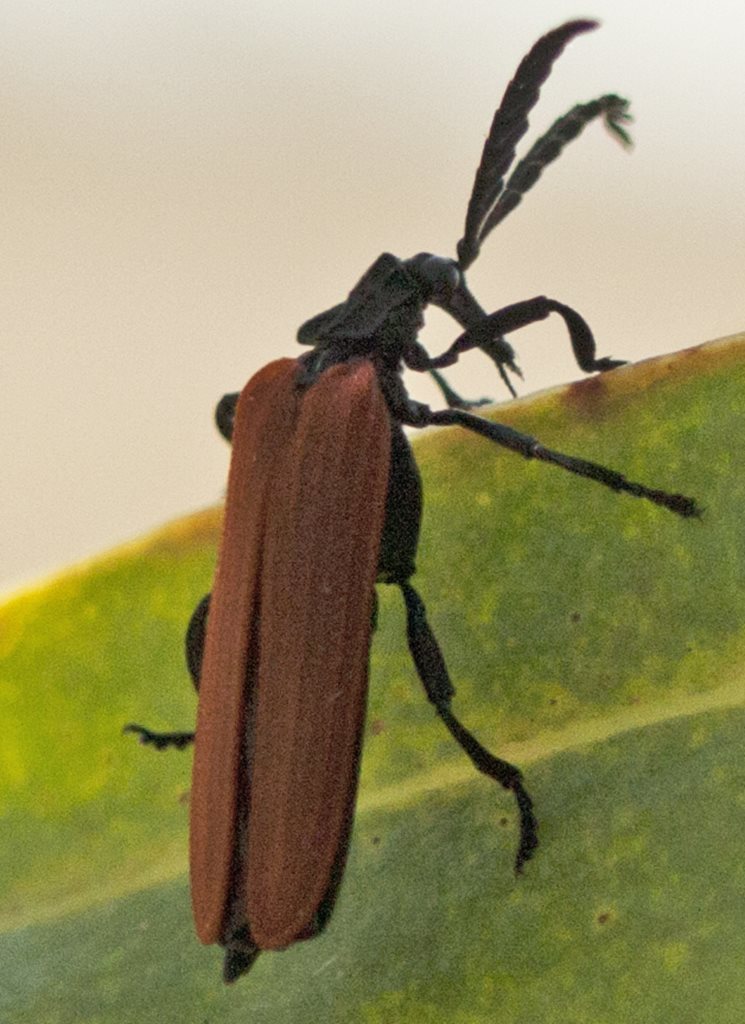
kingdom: Animalia
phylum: Arthropoda
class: Insecta
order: Coleoptera
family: Lycidae
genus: Porrostoma
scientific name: Porrostoma rhipidium
